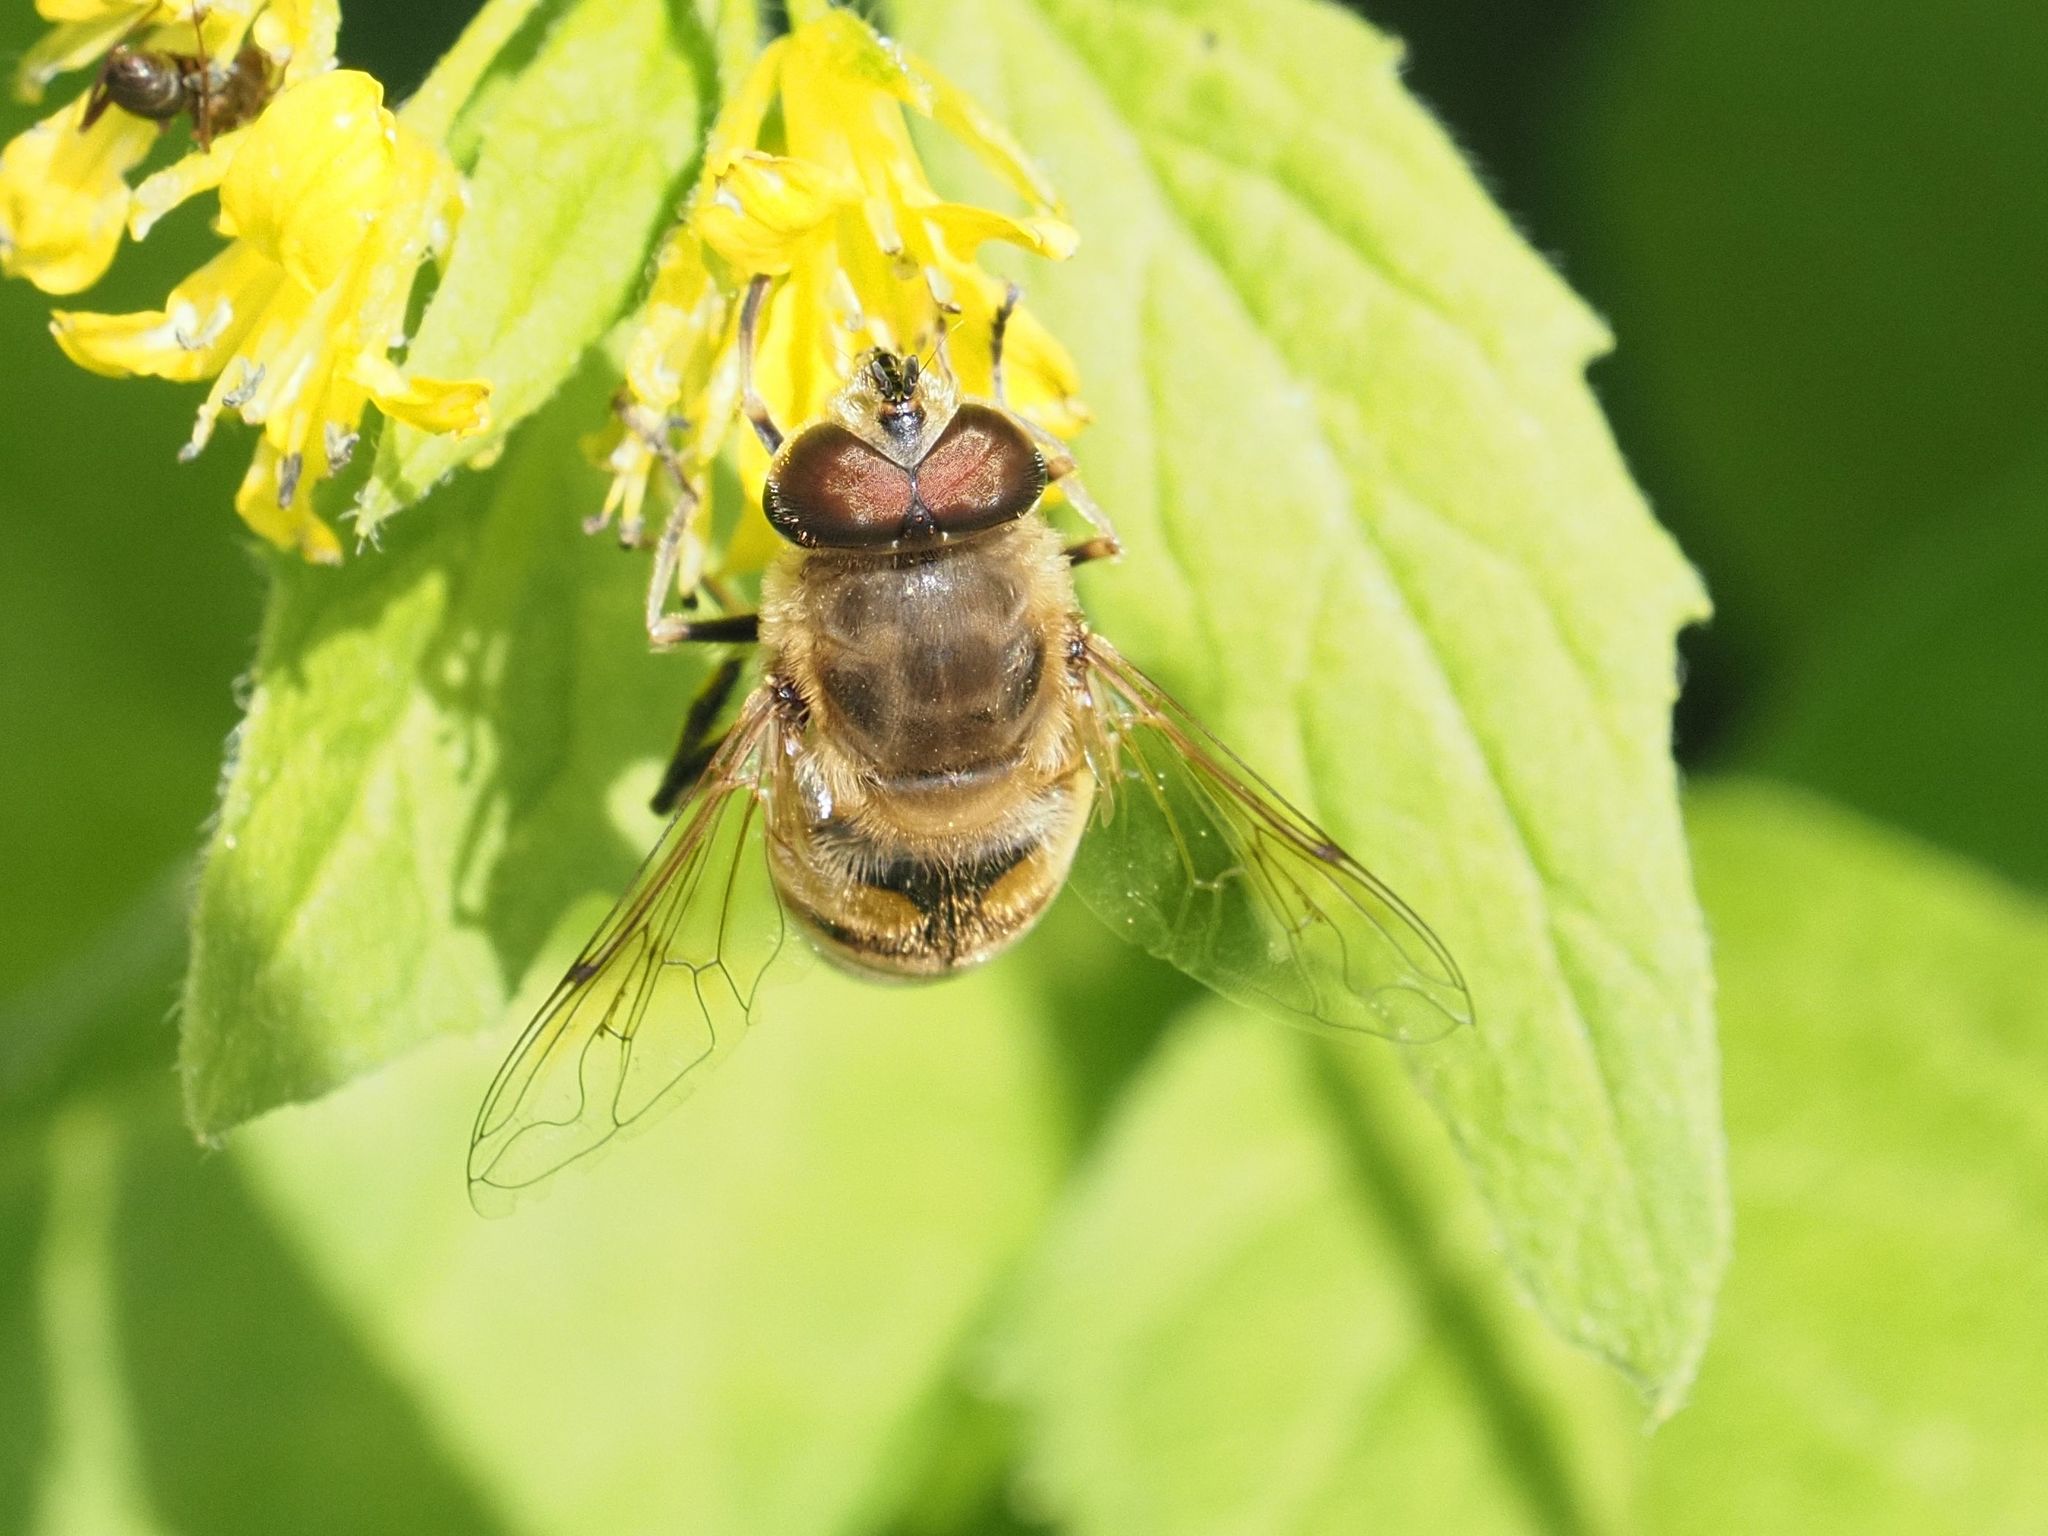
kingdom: Animalia
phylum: Arthropoda
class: Insecta
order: Diptera
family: Syrphidae
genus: Eristalis
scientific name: Eristalis tenax
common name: Drone fly
